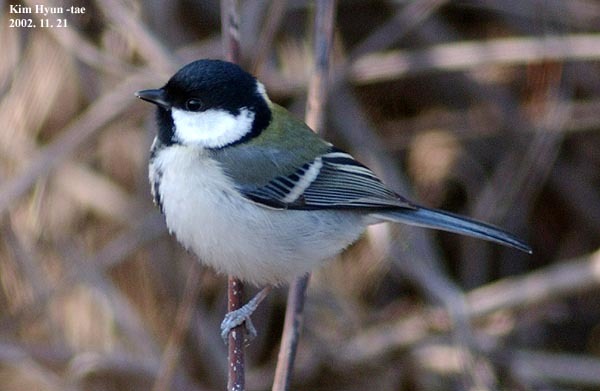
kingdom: Animalia
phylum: Chordata
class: Aves
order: Passeriformes
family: Paridae
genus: Parus
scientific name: Parus minor
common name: Japanese tit
